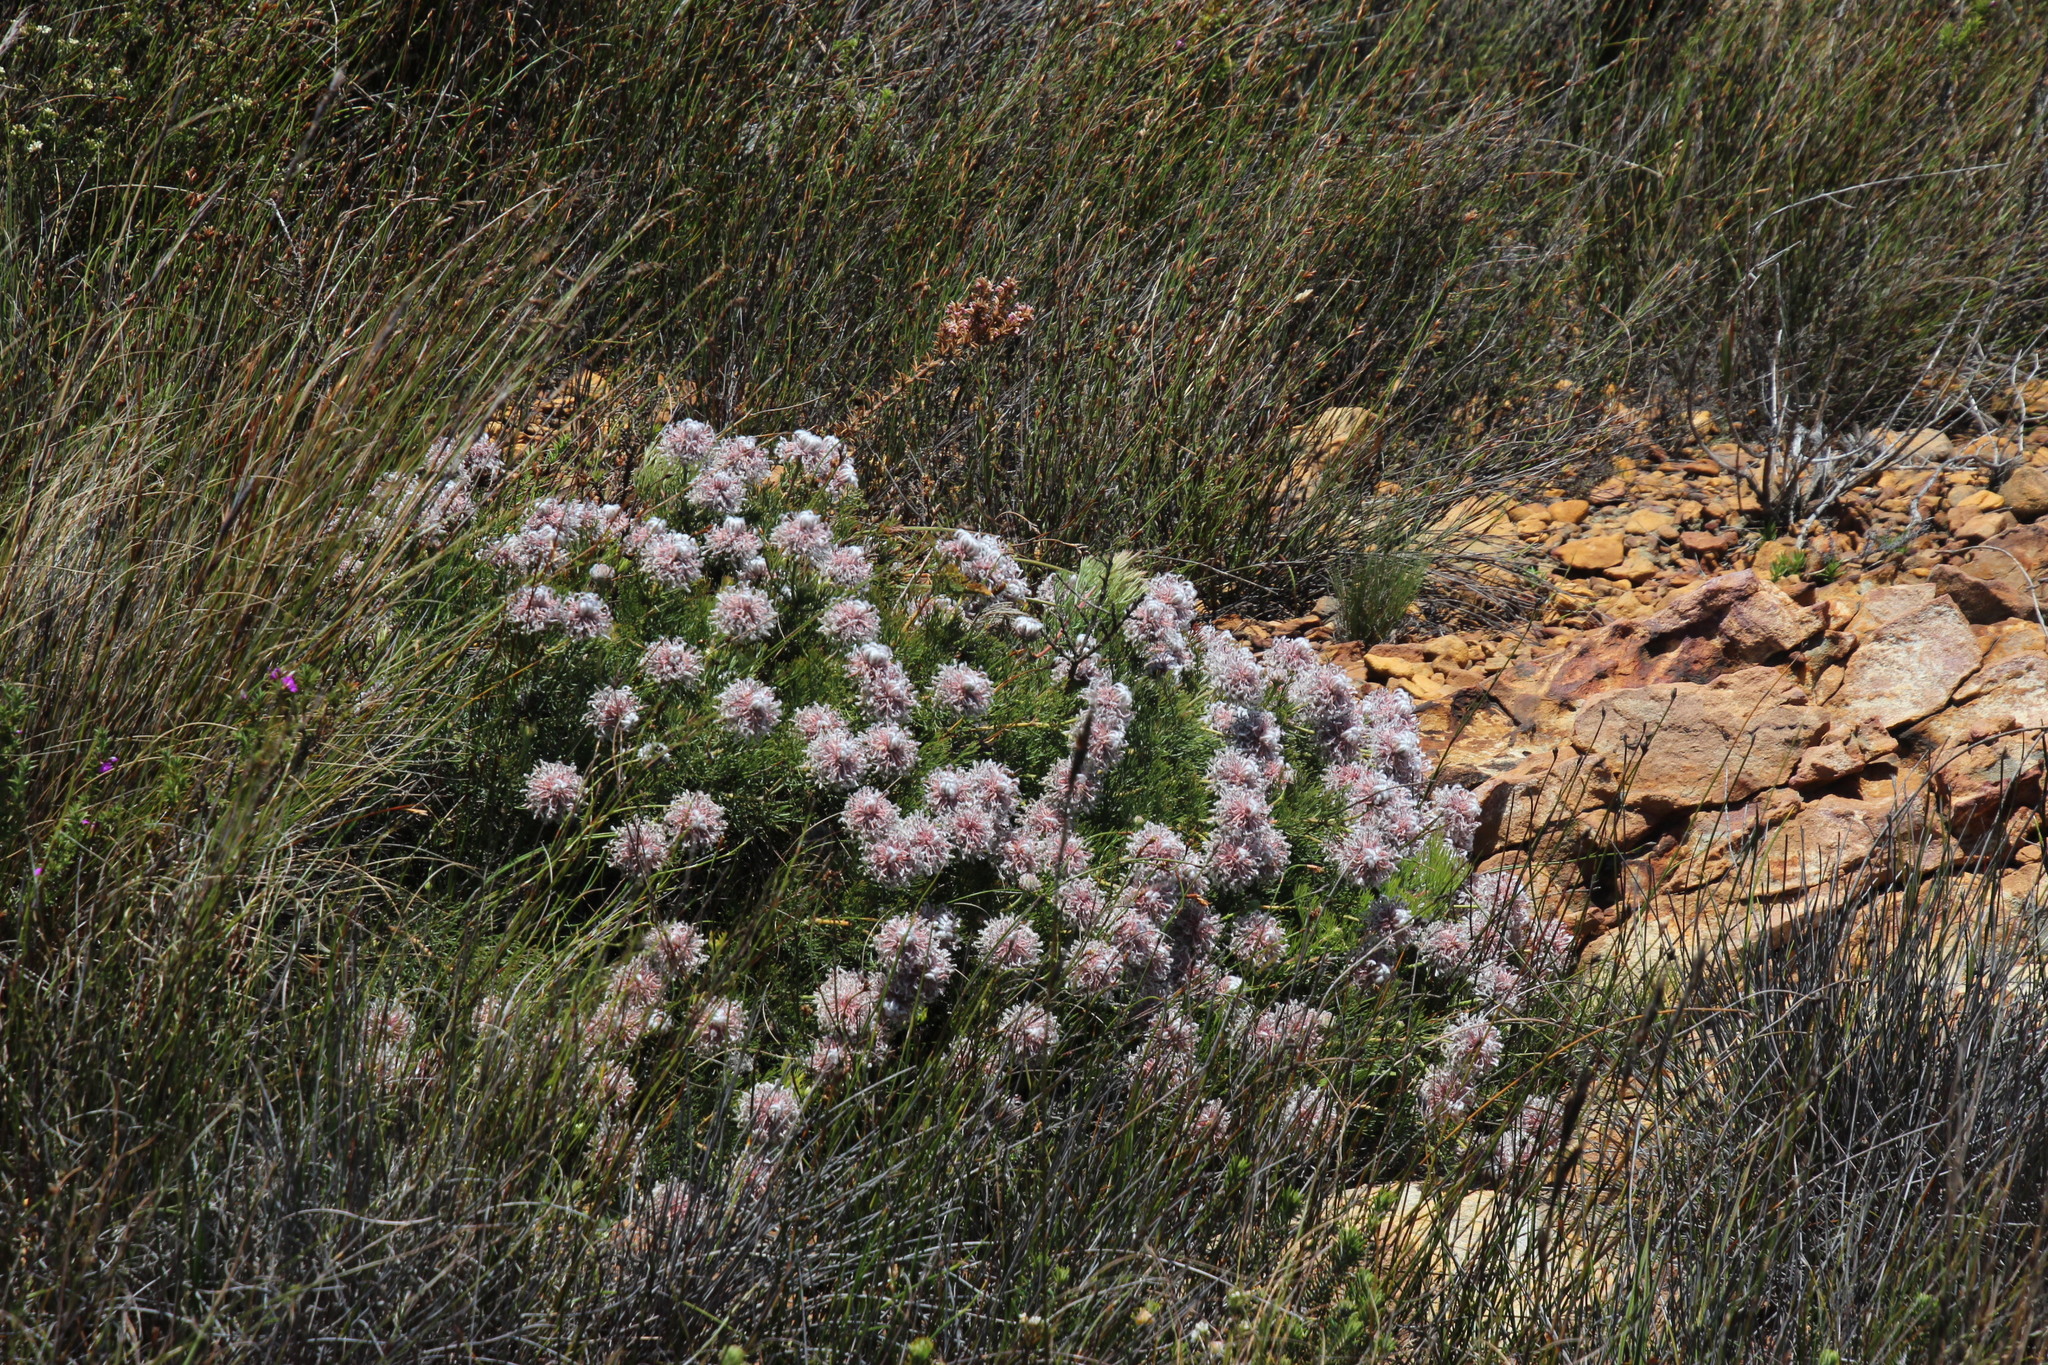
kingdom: Plantae
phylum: Tracheophyta
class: Magnoliopsida
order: Proteales
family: Proteaceae
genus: Serruria
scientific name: Serruria pedunculata
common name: Fan-leaf spiderhead
